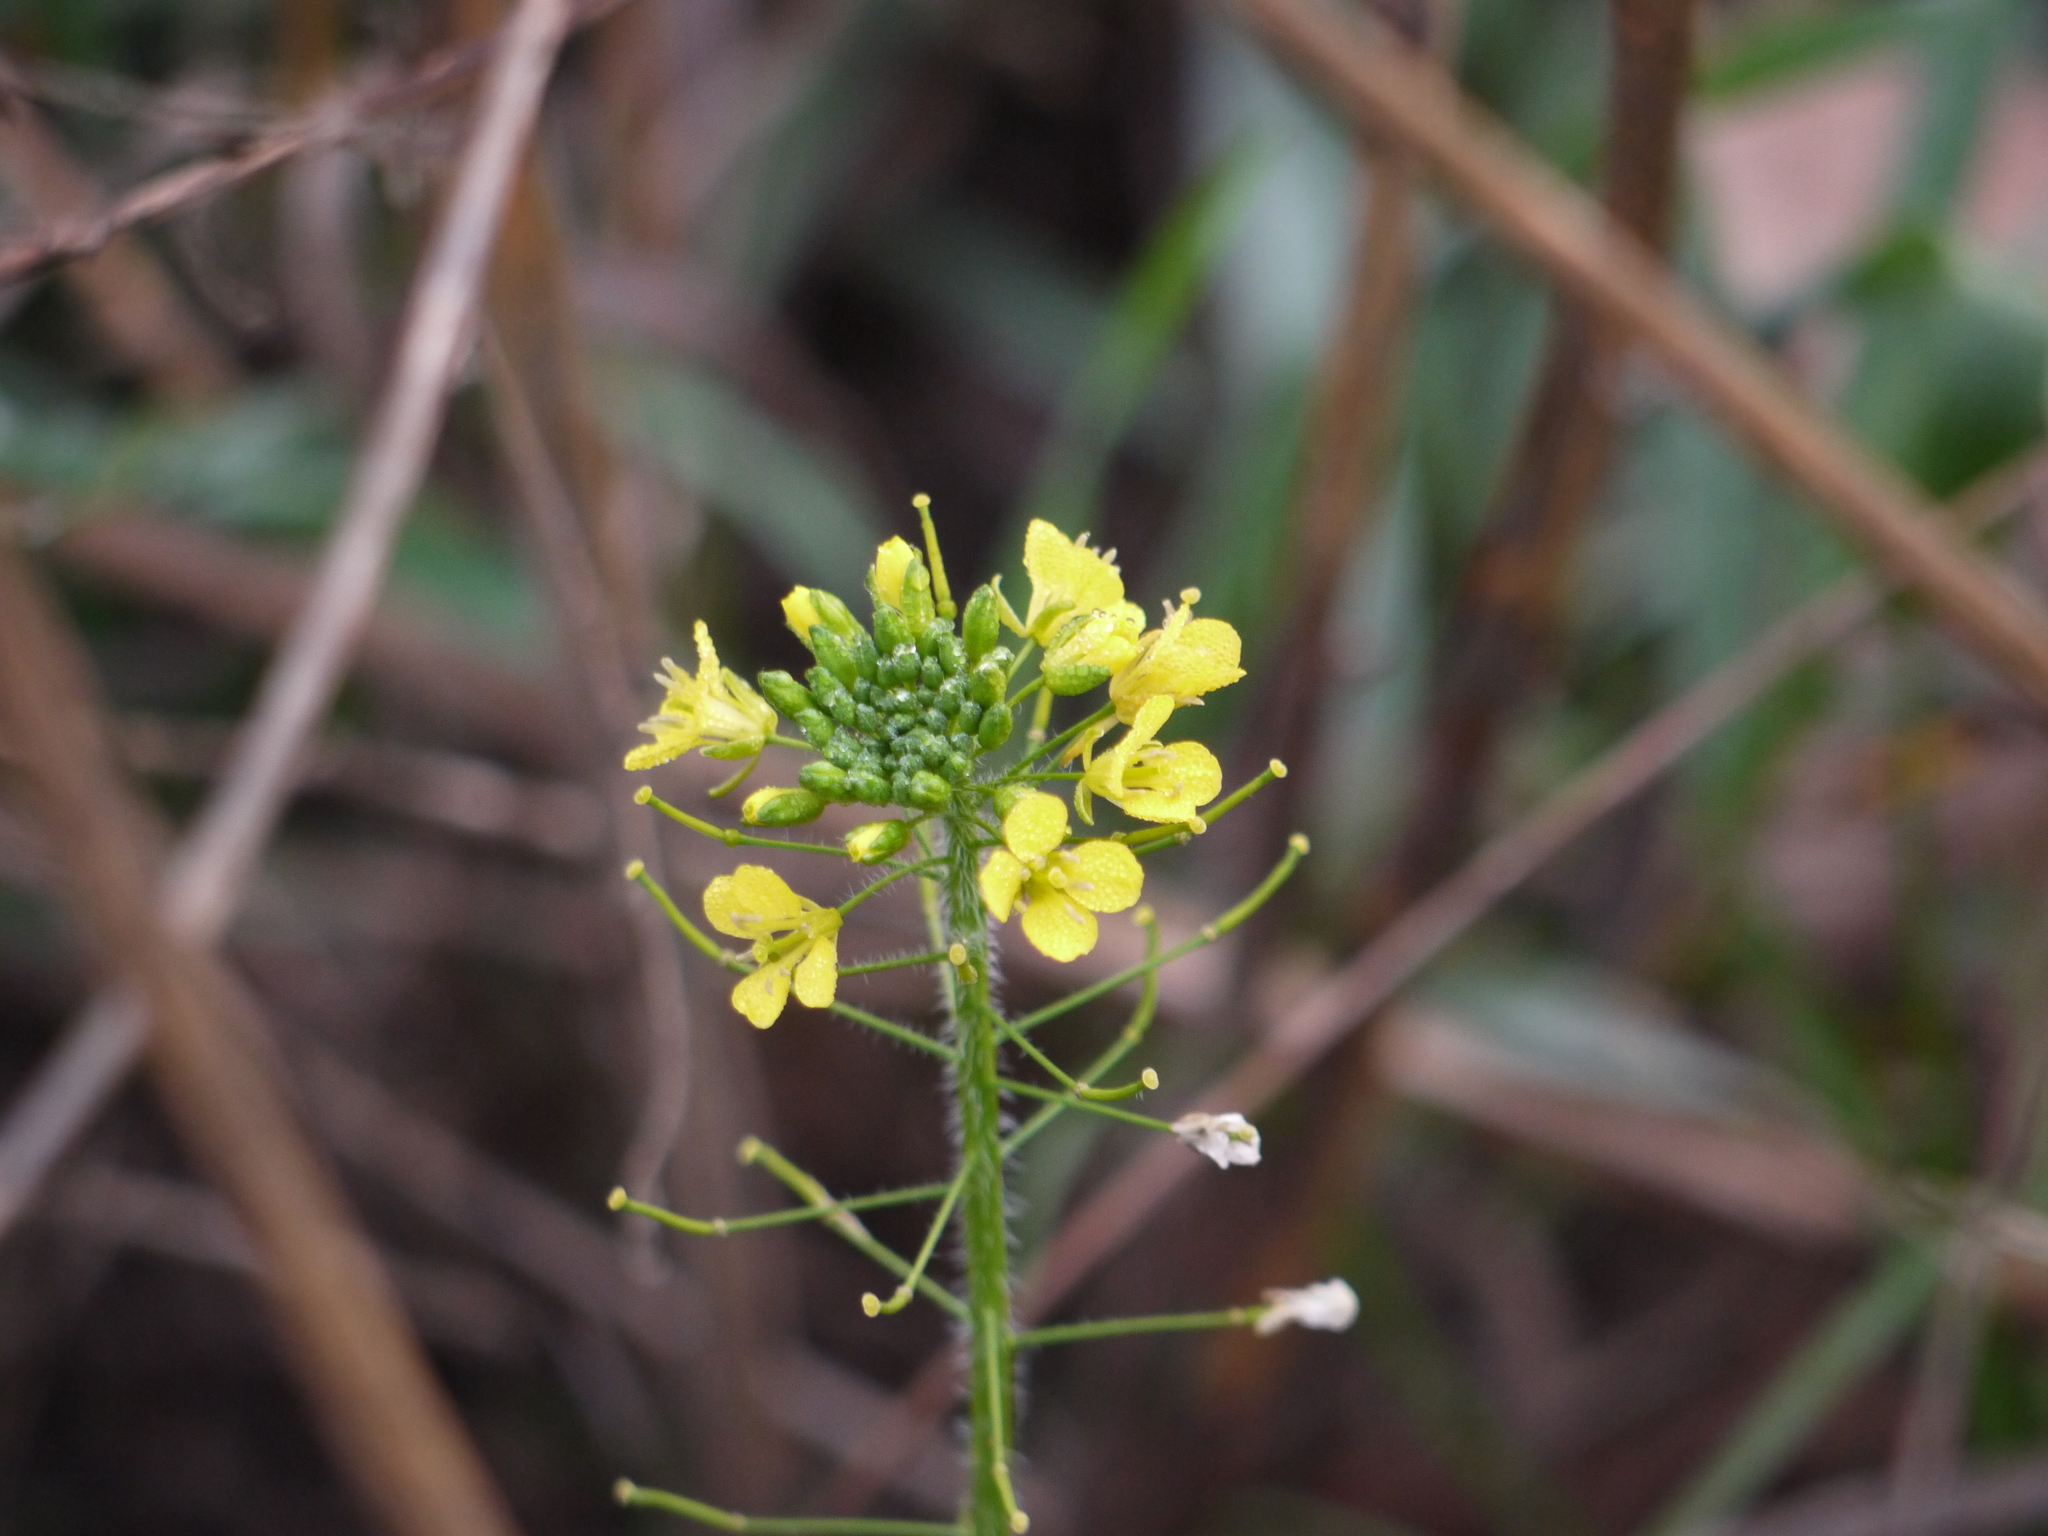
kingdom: Plantae
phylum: Tracheophyta
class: Magnoliopsida
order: Brassicales
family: Brassicaceae
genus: Sisymbrium
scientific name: Sisymbrium loeselii
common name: False london-rocket
